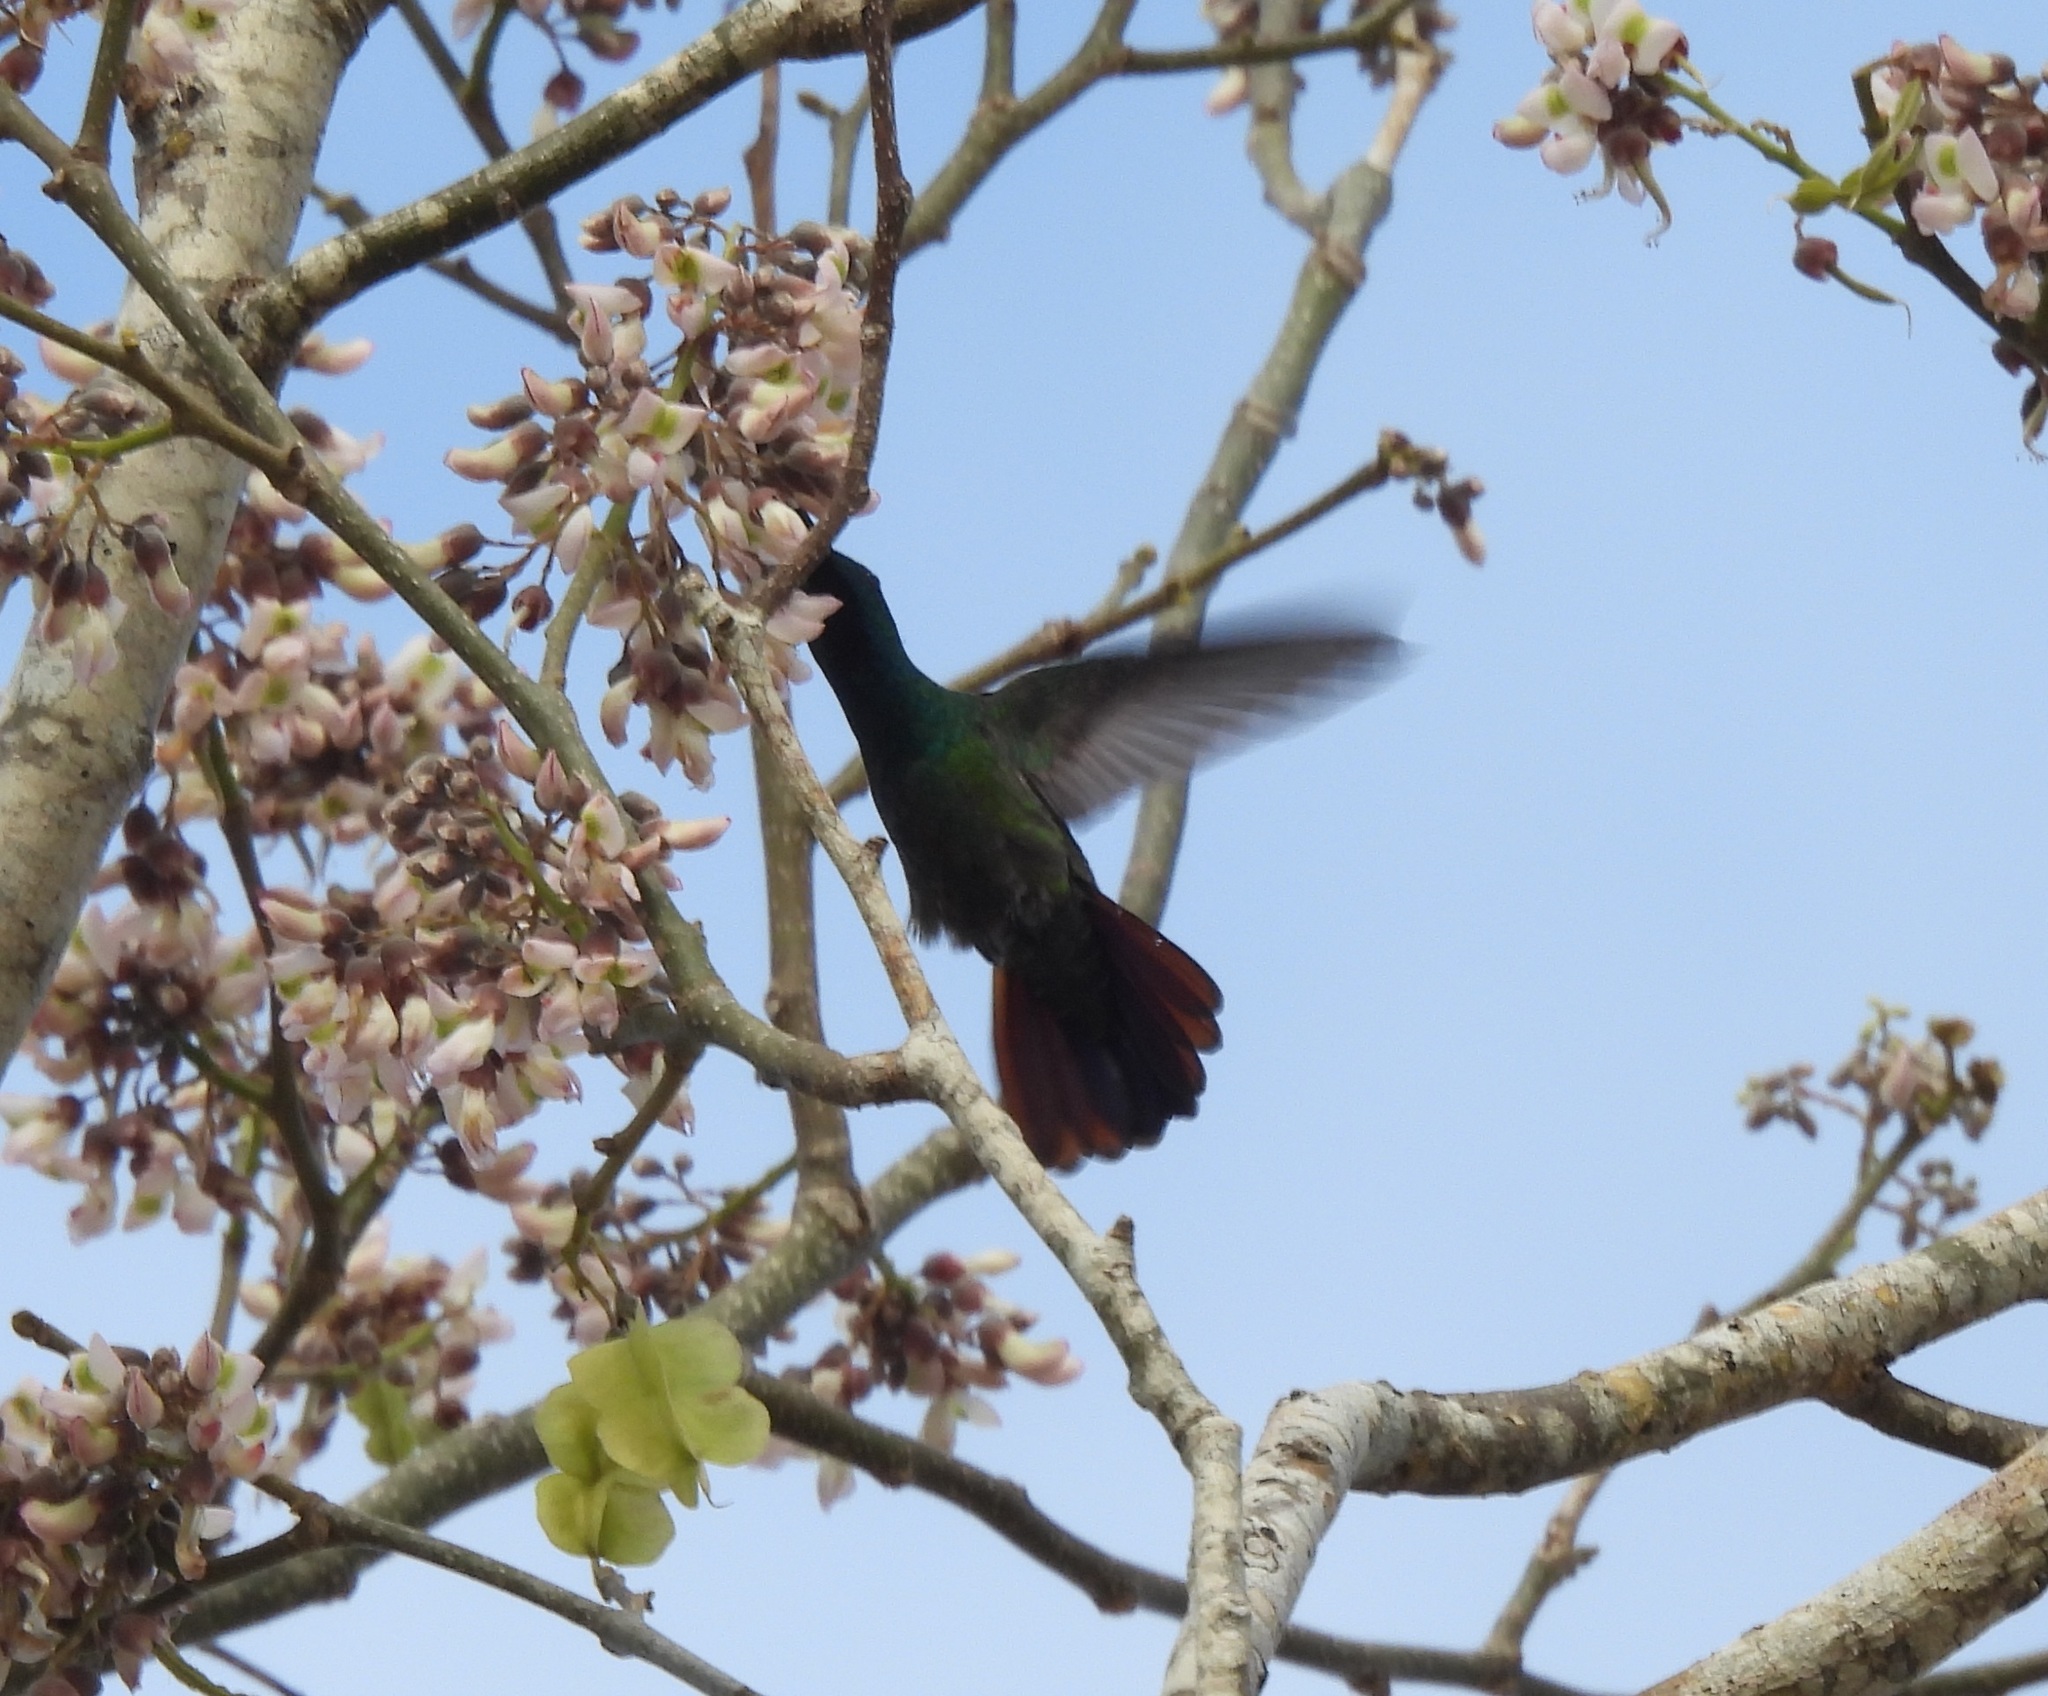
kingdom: Animalia
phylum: Chordata
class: Aves
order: Apodiformes
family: Trochilidae
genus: Anthracothorax
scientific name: Anthracothorax prevostii
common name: Green-breasted mango
